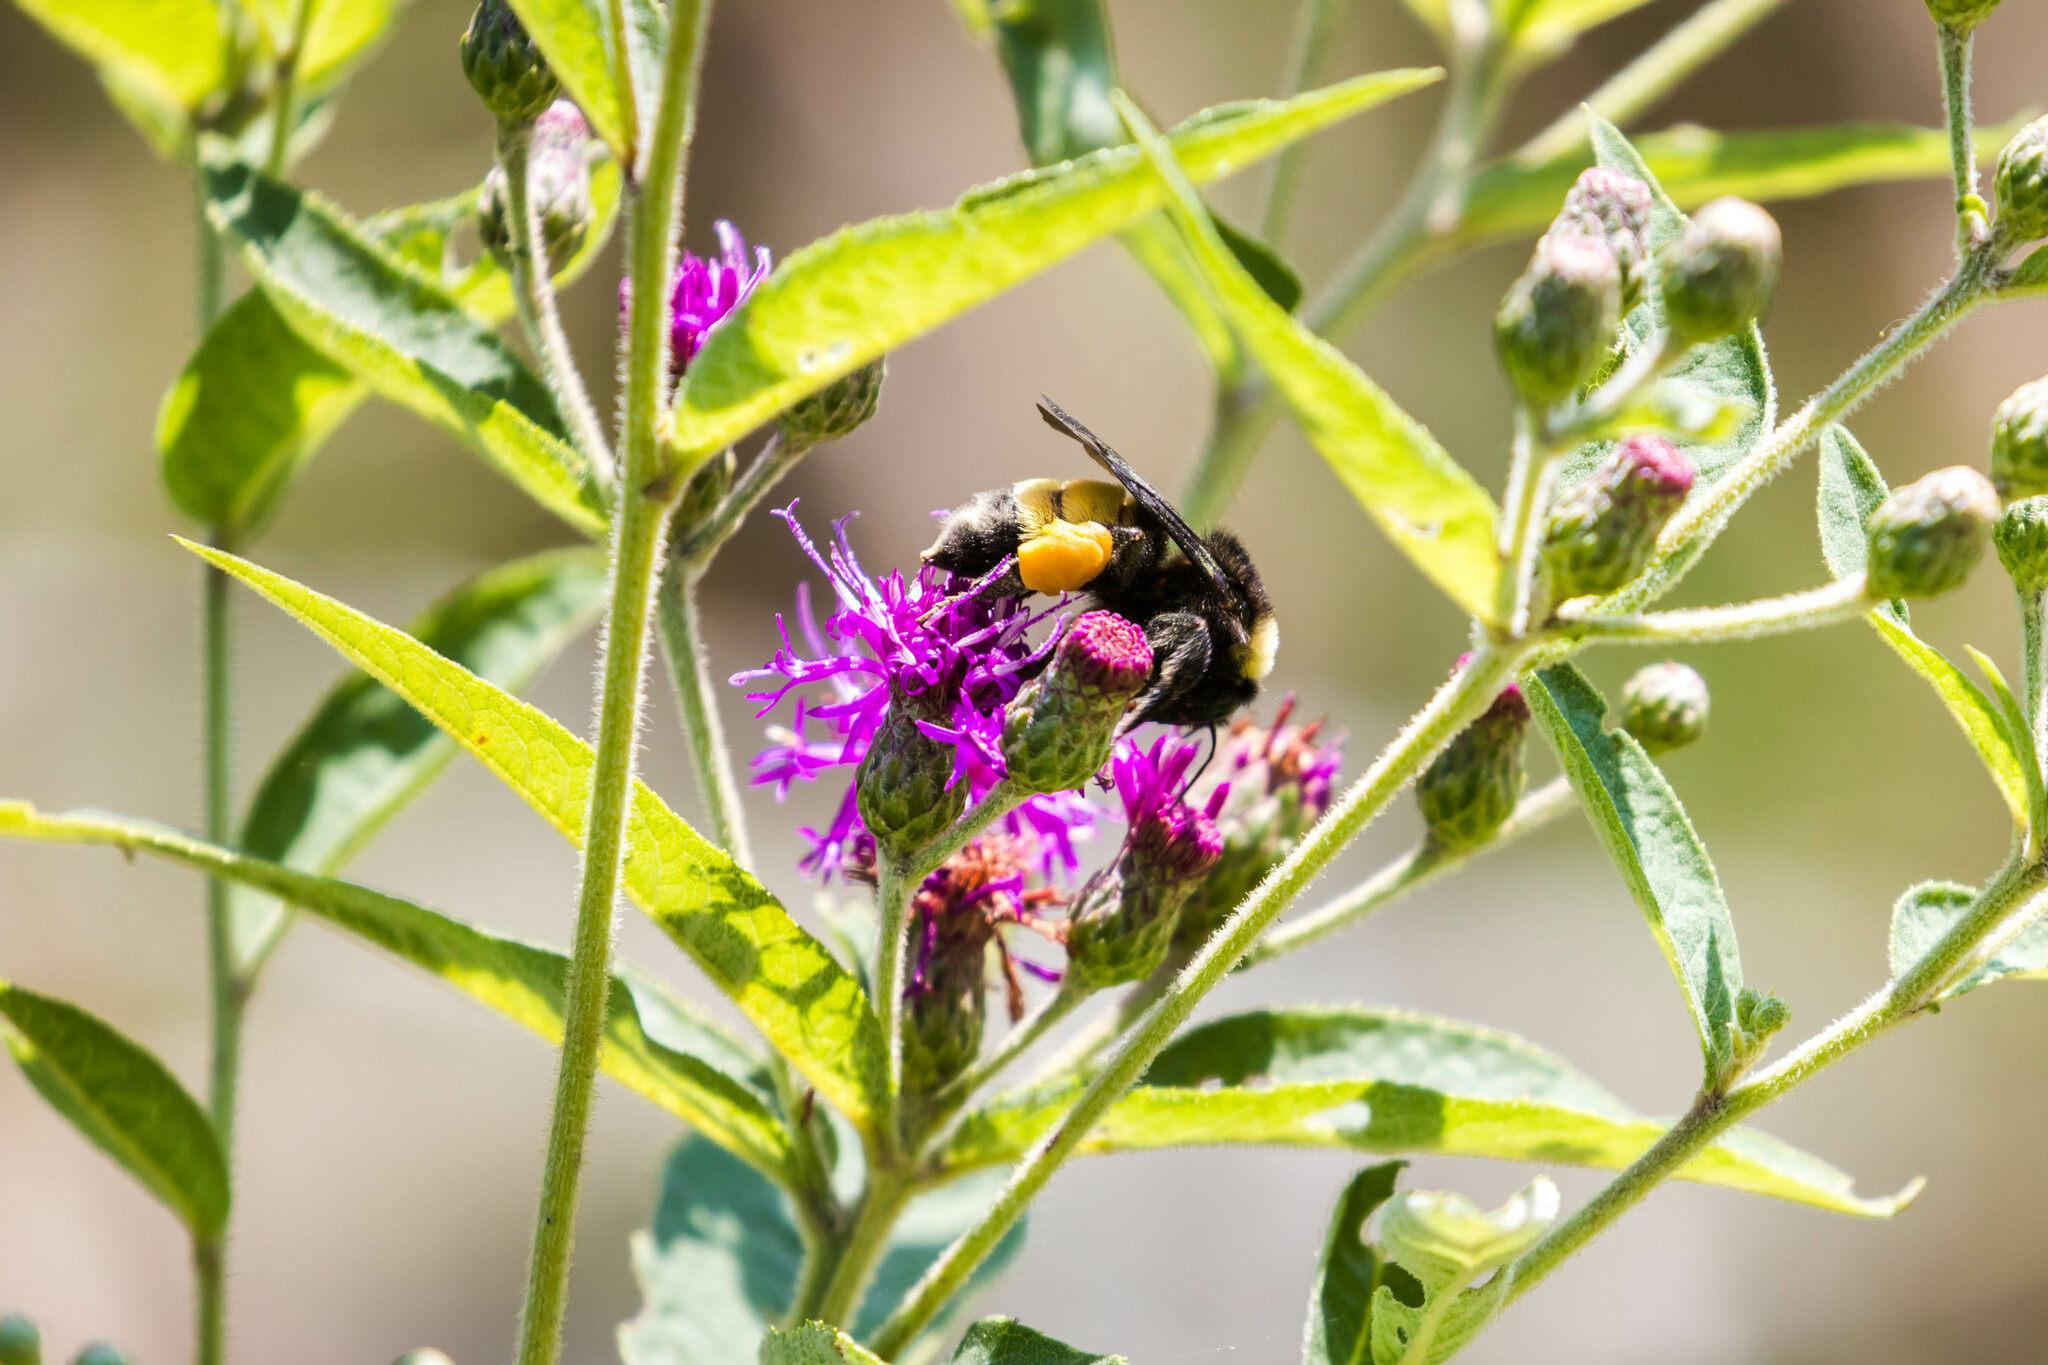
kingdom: Animalia
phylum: Arthropoda
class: Insecta
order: Hymenoptera
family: Apidae
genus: Bombus
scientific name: Bombus pensylvanicus
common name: Bumble bee
